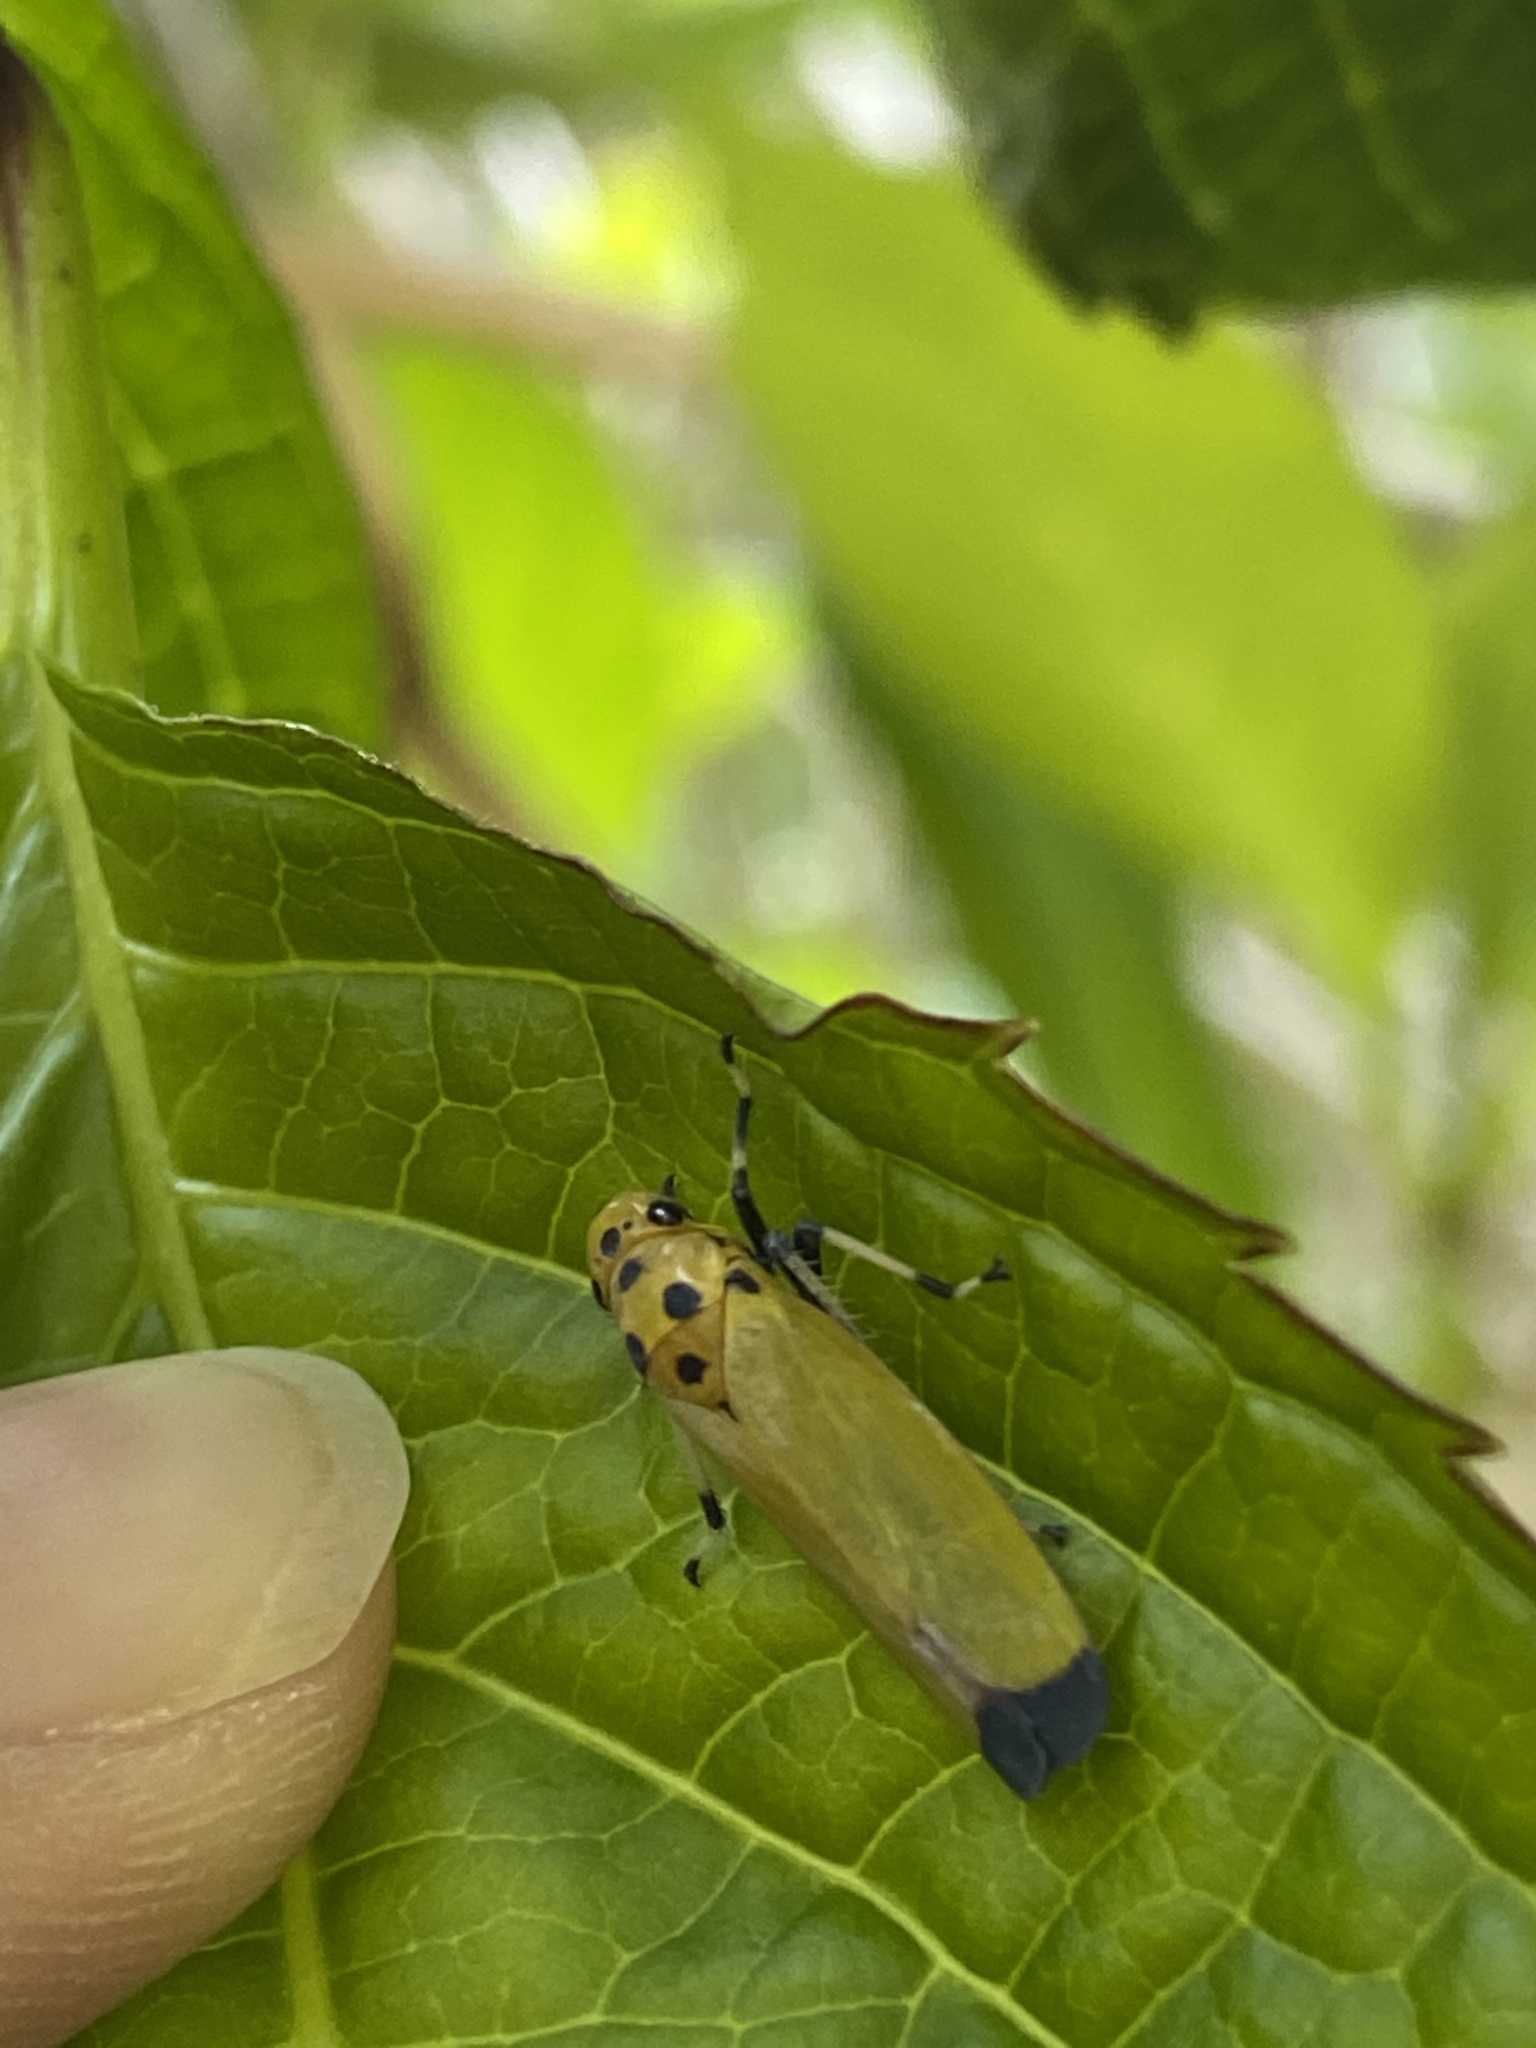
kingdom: Animalia
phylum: Arthropoda
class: Insecta
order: Hemiptera
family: Cicadellidae
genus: Bothrogonia
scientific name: Bothrogonia ferruginea
